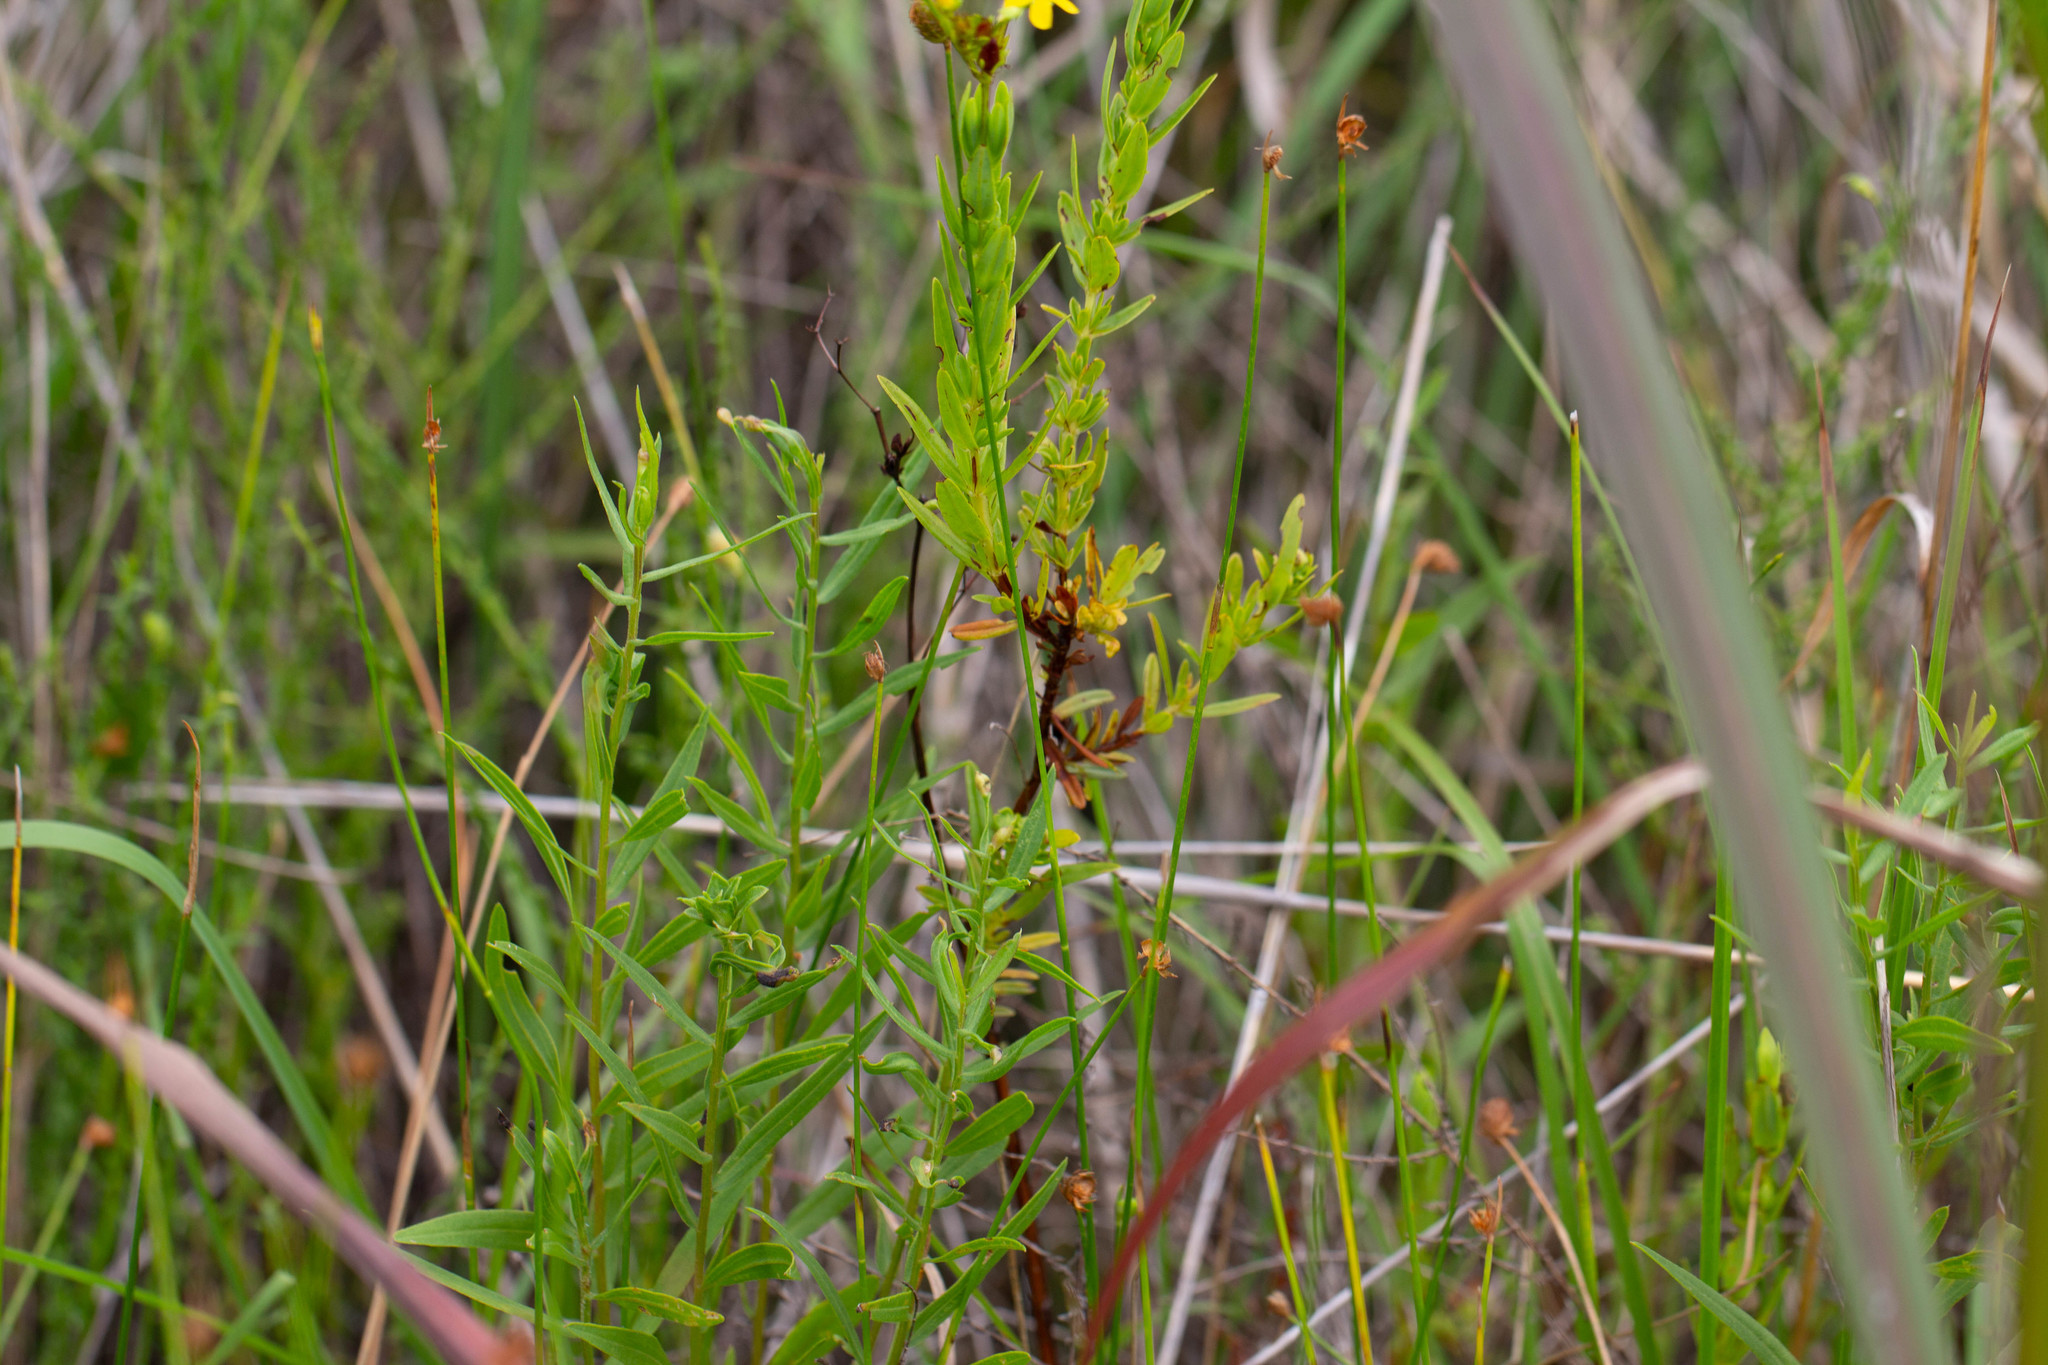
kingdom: Plantae
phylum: Tracheophyta
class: Magnoliopsida
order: Malpighiales
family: Hypericaceae
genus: Hypericum
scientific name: Hypericum cistifolium
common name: Round-pod st. john's-wort
